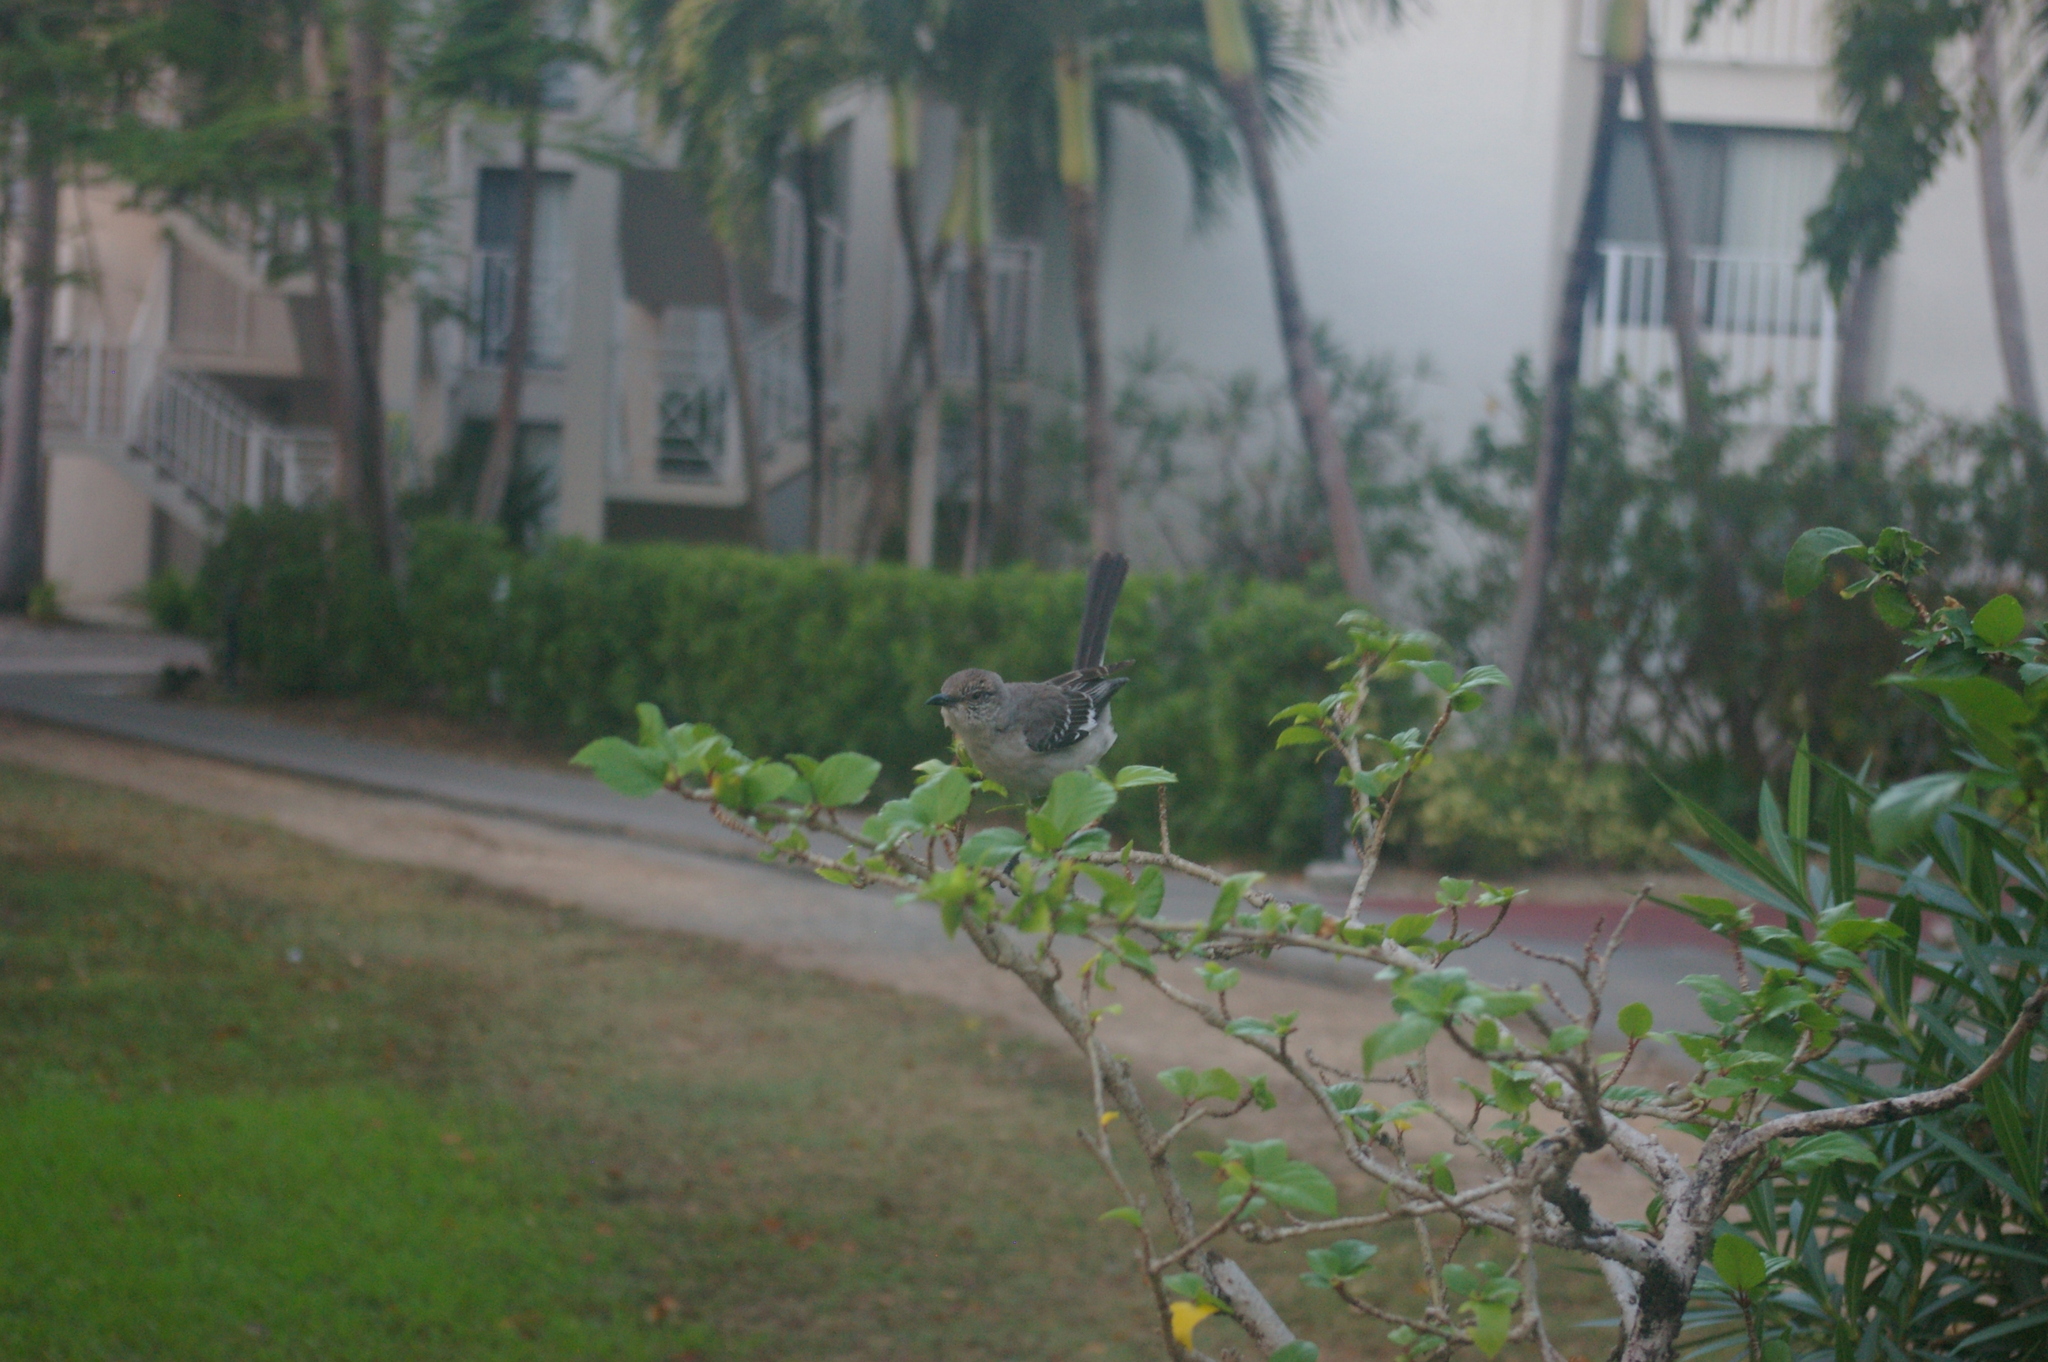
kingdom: Animalia
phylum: Chordata
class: Aves
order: Passeriformes
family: Mimidae
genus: Mimus
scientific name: Mimus polyglottos
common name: Northern mockingbird
